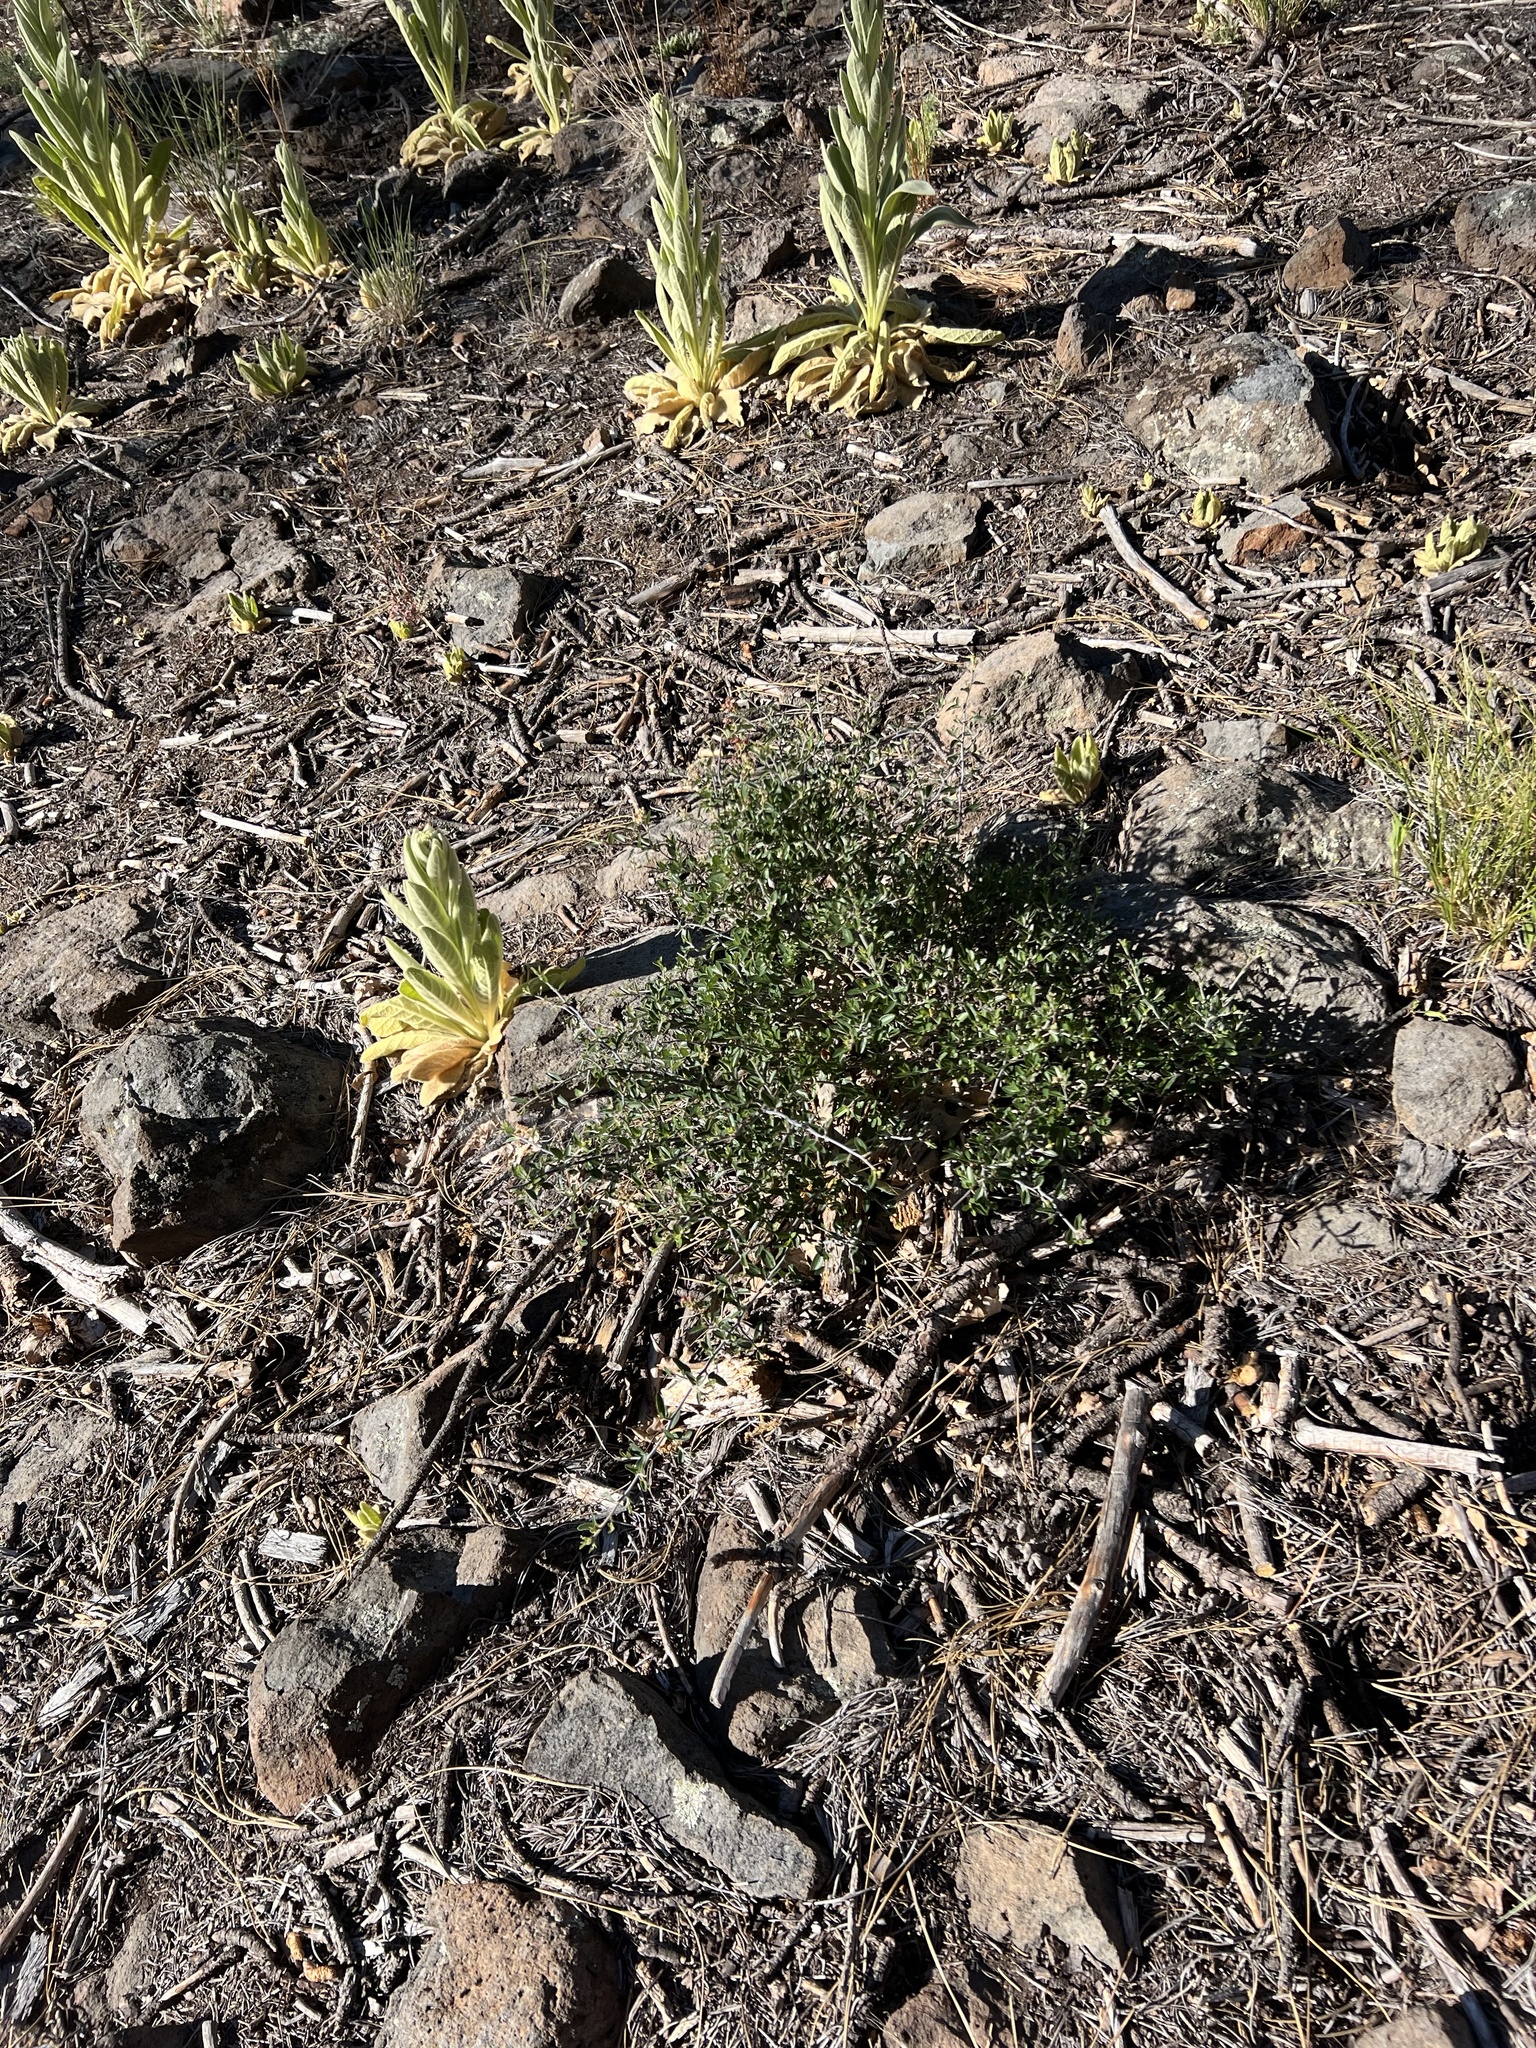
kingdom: Plantae
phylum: Tracheophyta
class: Magnoliopsida
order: Rosales
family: Rhamnaceae
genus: Ceanothus
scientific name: Ceanothus fendleri
